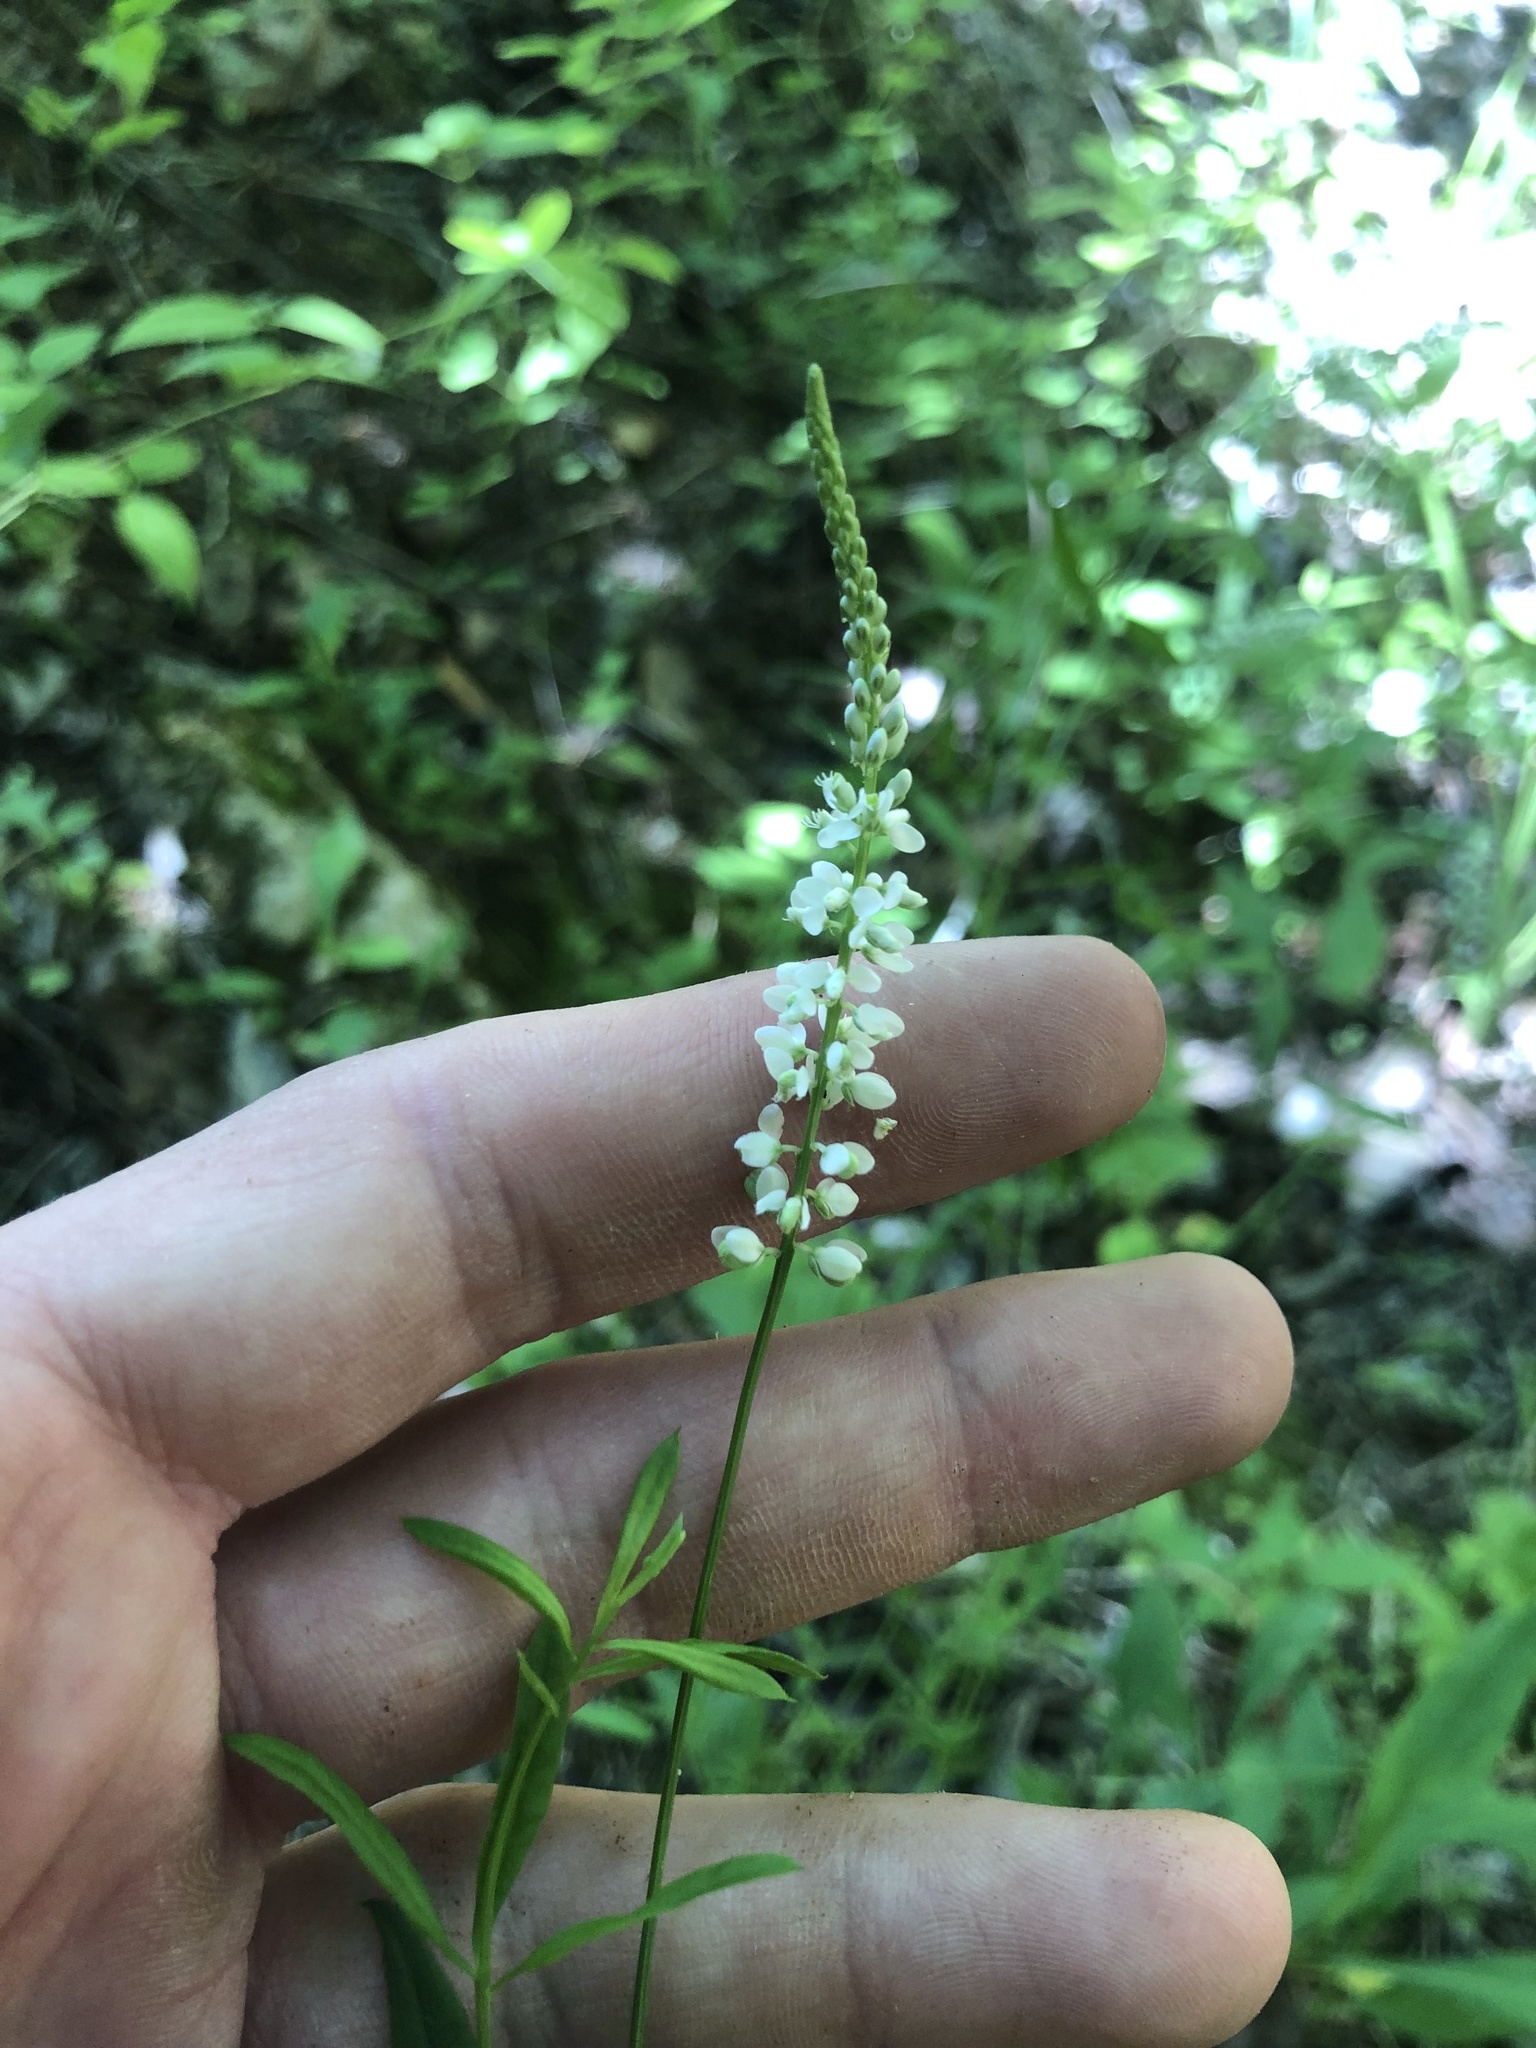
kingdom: Plantae
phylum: Tracheophyta
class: Magnoliopsida
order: Fabales
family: Polygalaceae
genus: Polygala
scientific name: Polygala boykinii
